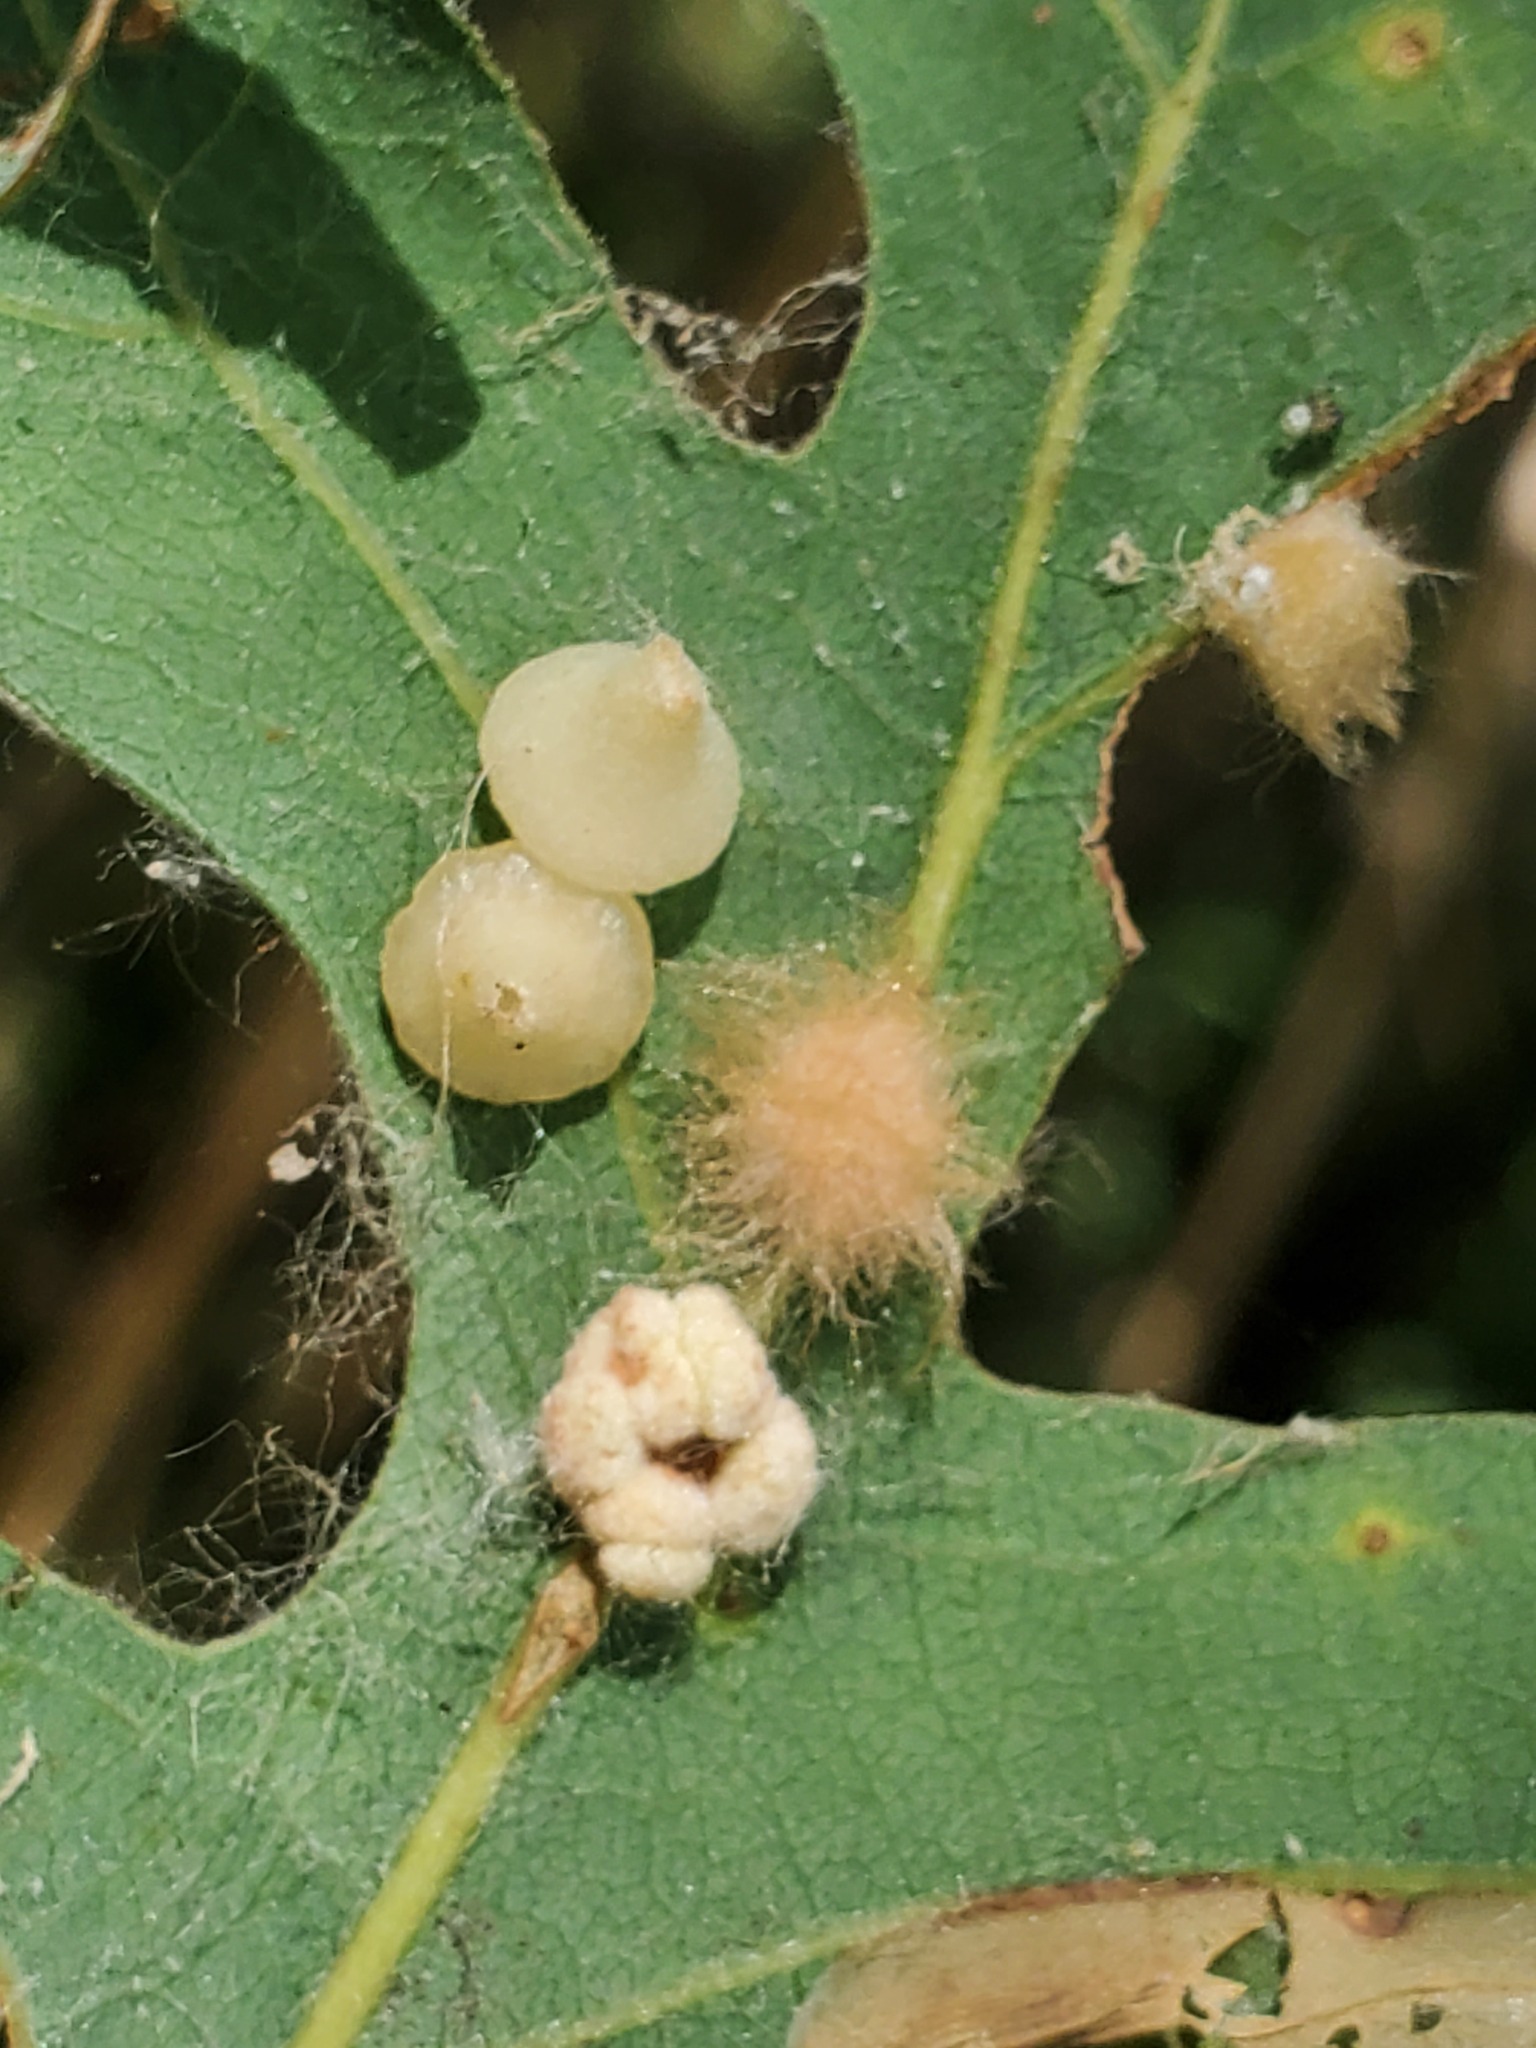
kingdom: Animalia
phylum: Arthropoda
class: Insecta
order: Hymenoptera
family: Cynipidae
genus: Andricus
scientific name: Andricus
